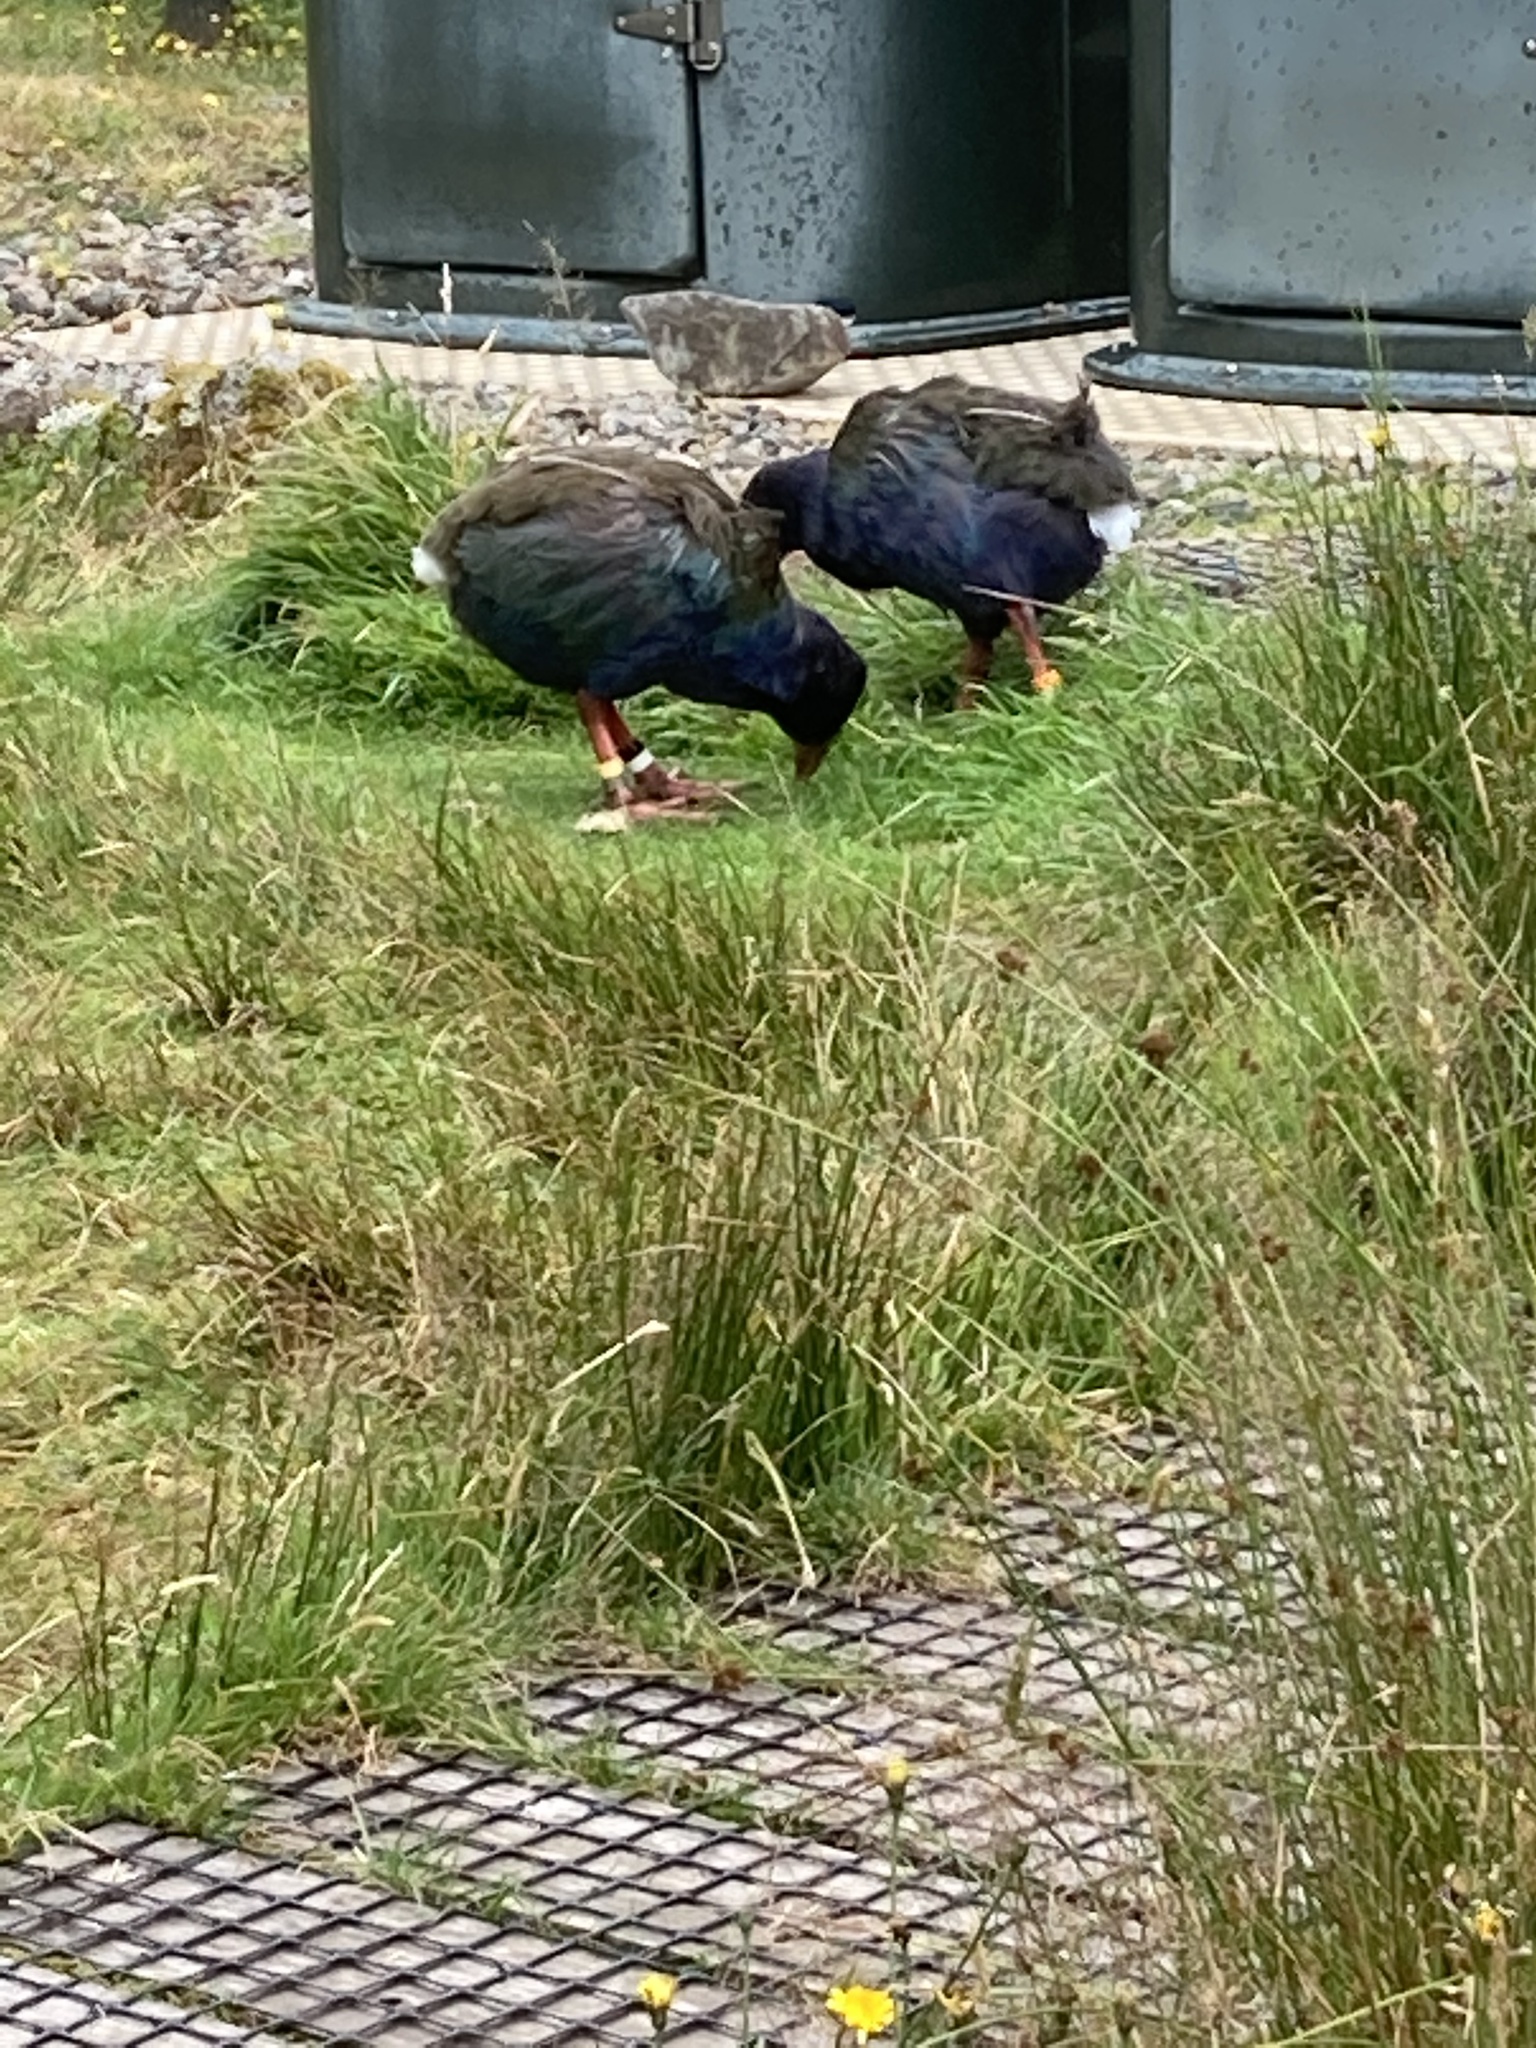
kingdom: Animalia
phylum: Chordata
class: Aves
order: Gruiformes
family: Rallidae
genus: Porphyrio
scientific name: Porphyrio hochstetteri
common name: South island takahe
